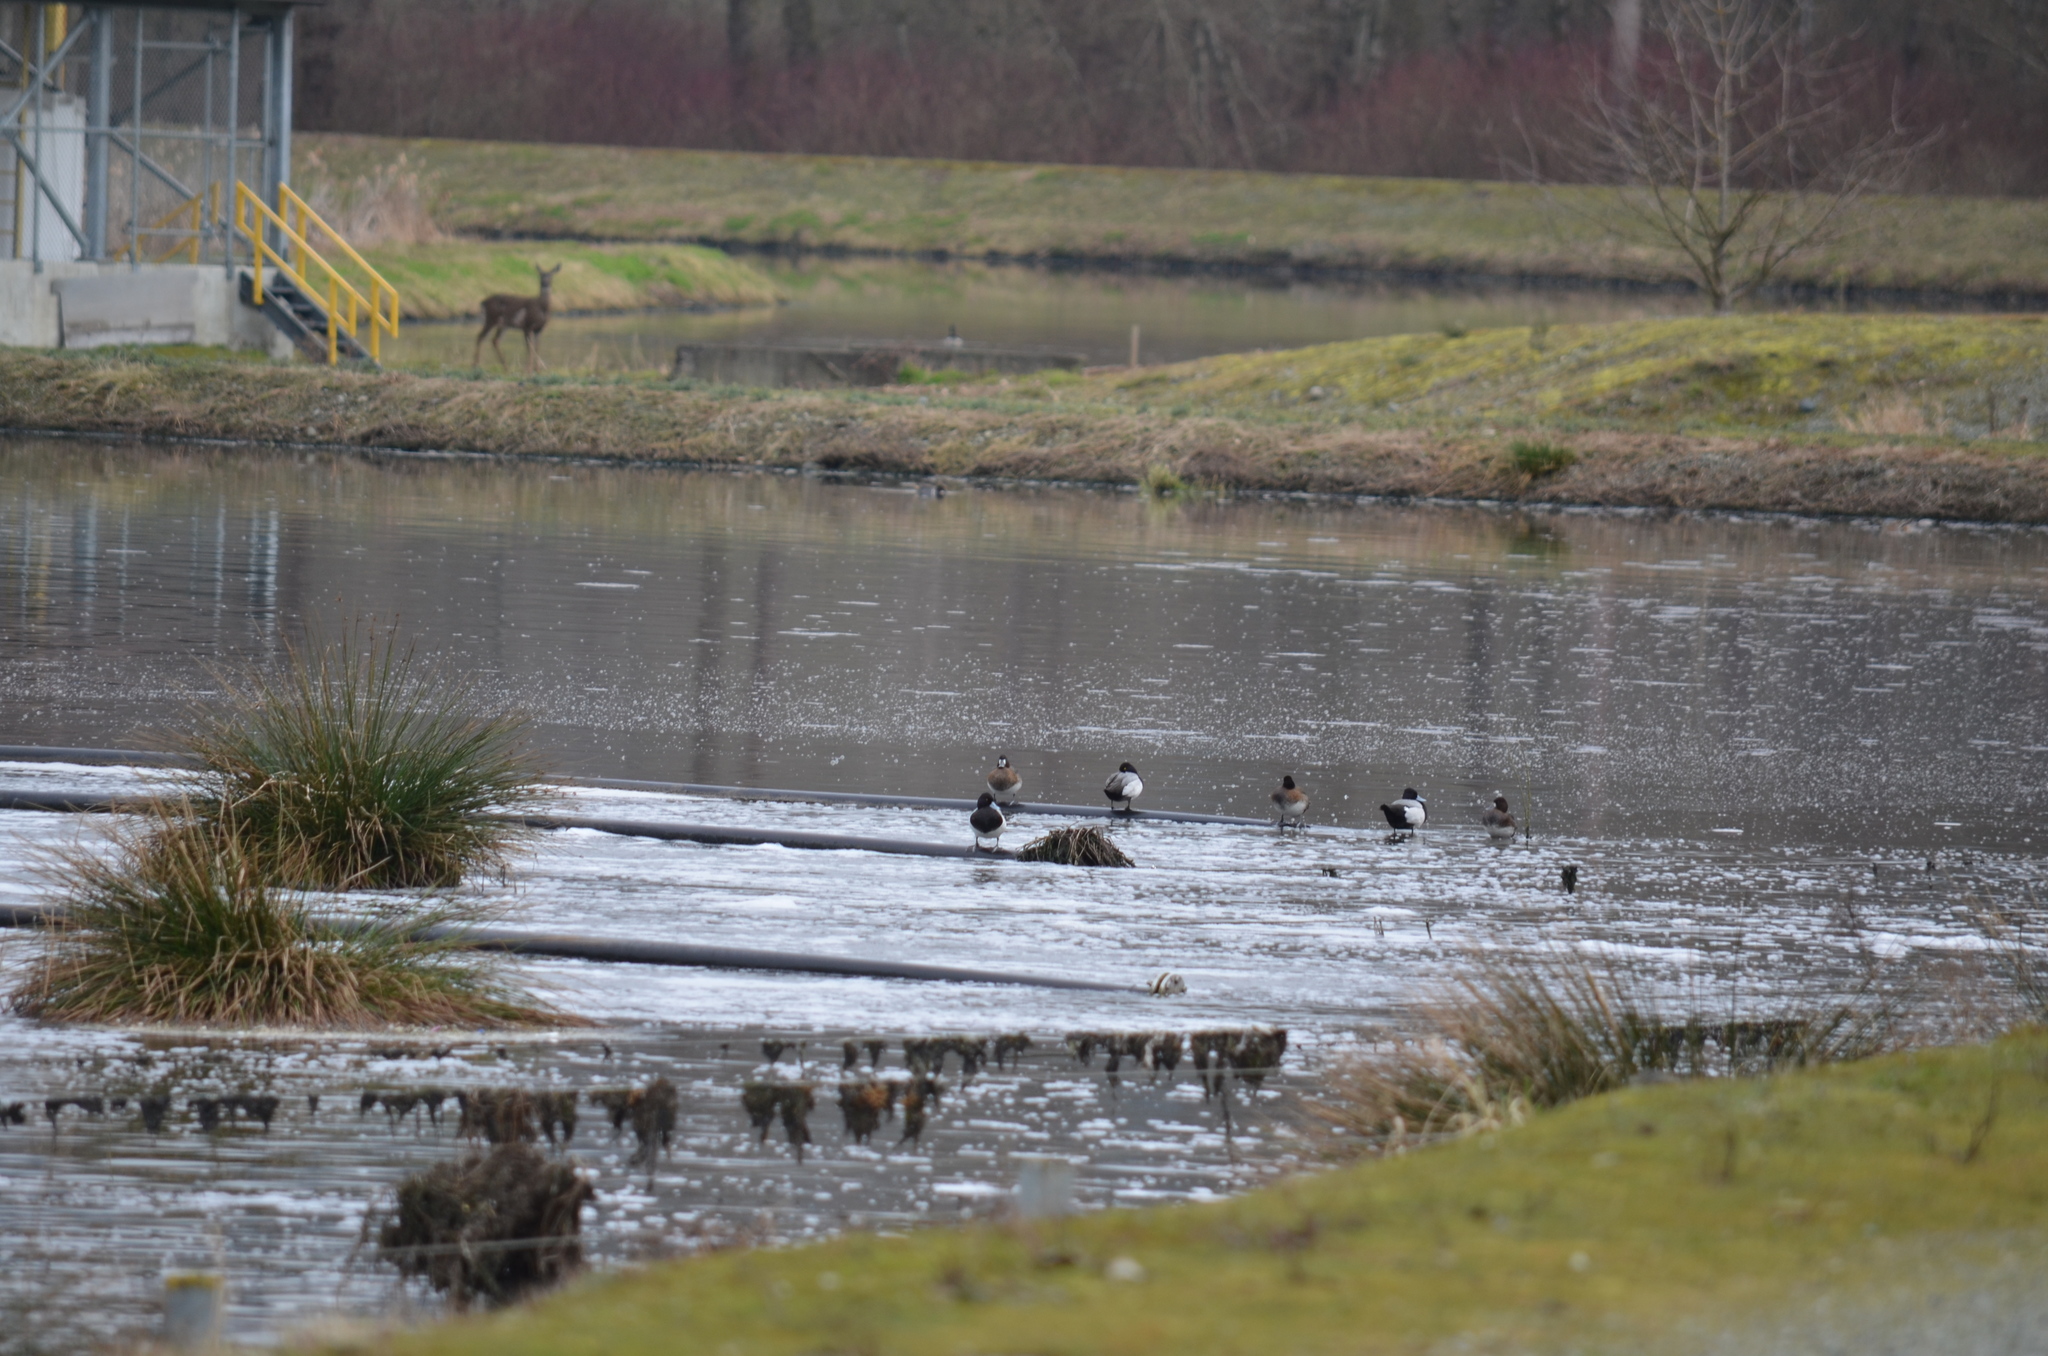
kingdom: Animalia
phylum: Chordata
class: Aves
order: Anseriformes
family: Anatidae
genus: Aythya
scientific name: Aythya affinis
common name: Lesser scaup
